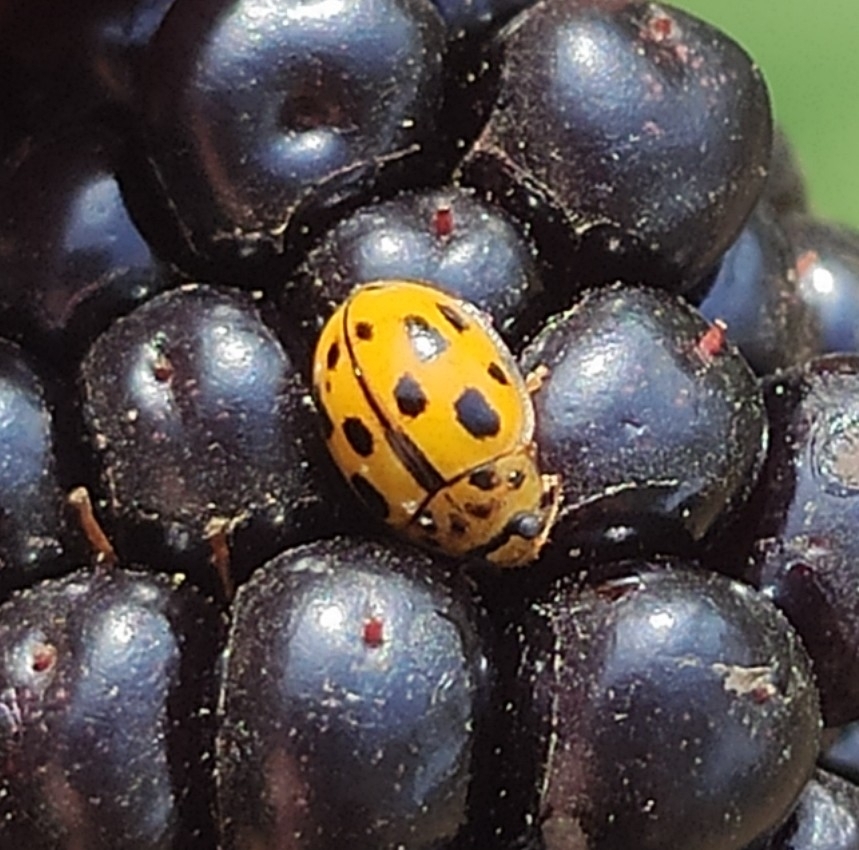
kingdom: Animalia
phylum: Arthropoda
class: Insecta
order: Coleoptera
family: Coccinellidae
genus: Propylaea
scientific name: Propylaea quatuordecimpunctata
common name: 14-spotted ladybird beetle
